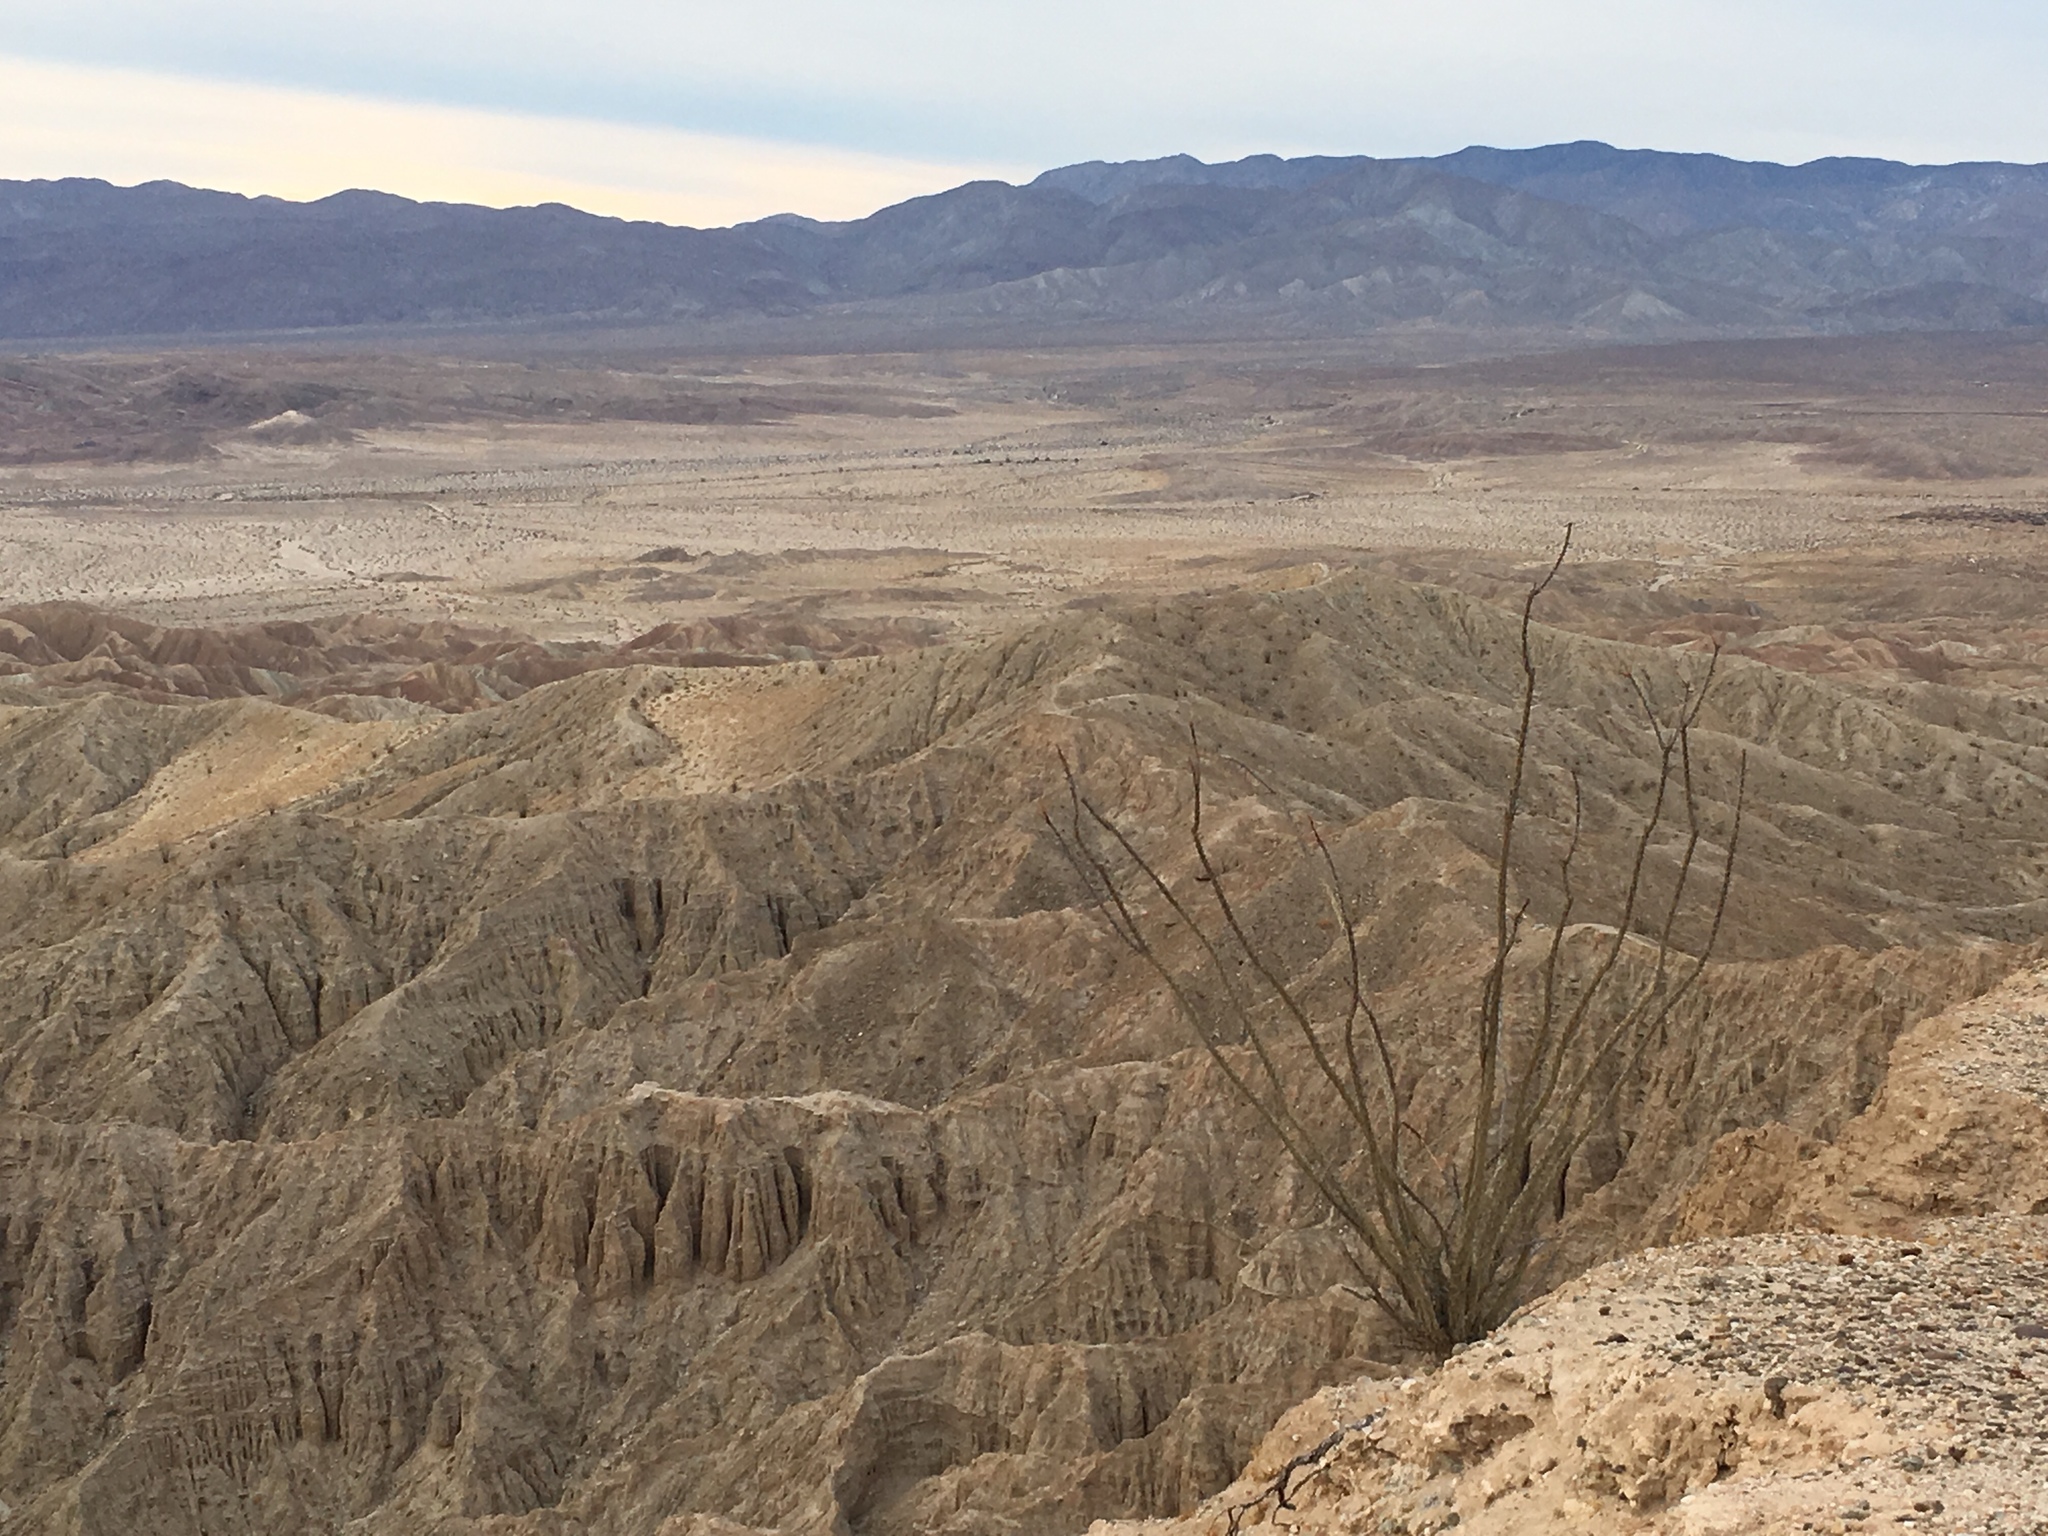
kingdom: Plantae
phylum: Tracheophyta
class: Magnoliopsida
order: Ericales
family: Fouquieriaceae
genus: Fouquieria
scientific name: Fouquieria splendens
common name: Vine-cactus
